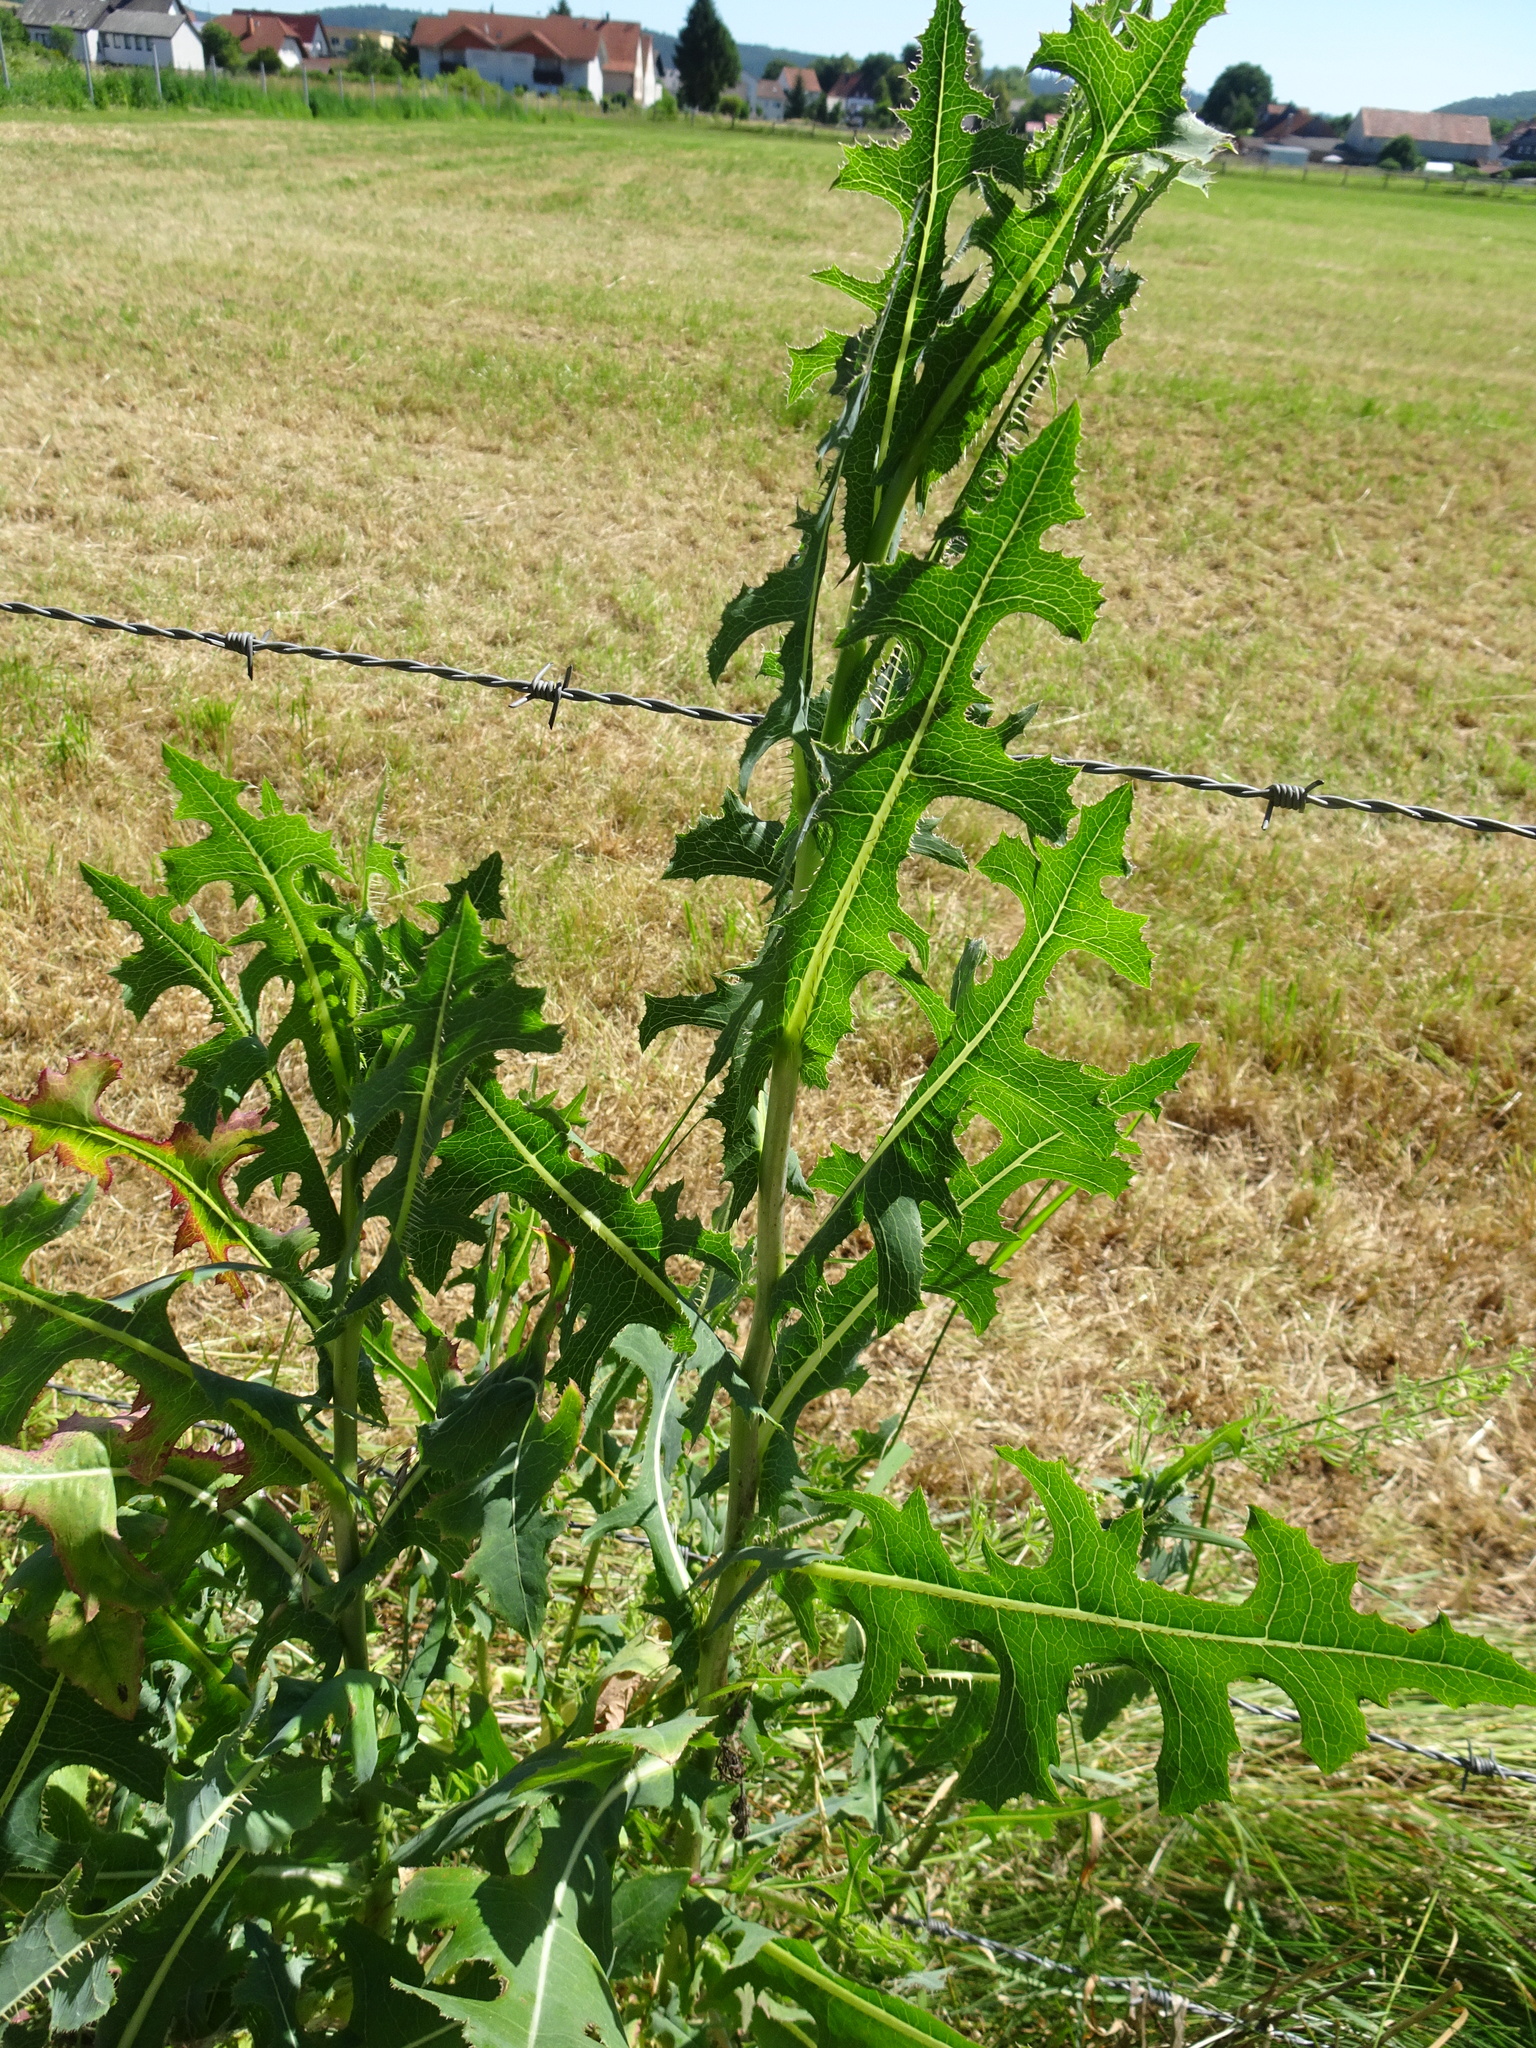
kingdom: Plantae
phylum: Tracheophyta
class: Magnoliopsida
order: Asterales
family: Asteraceae
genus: Lactuca
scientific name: Lactuca serriola
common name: Prickly lettuce
